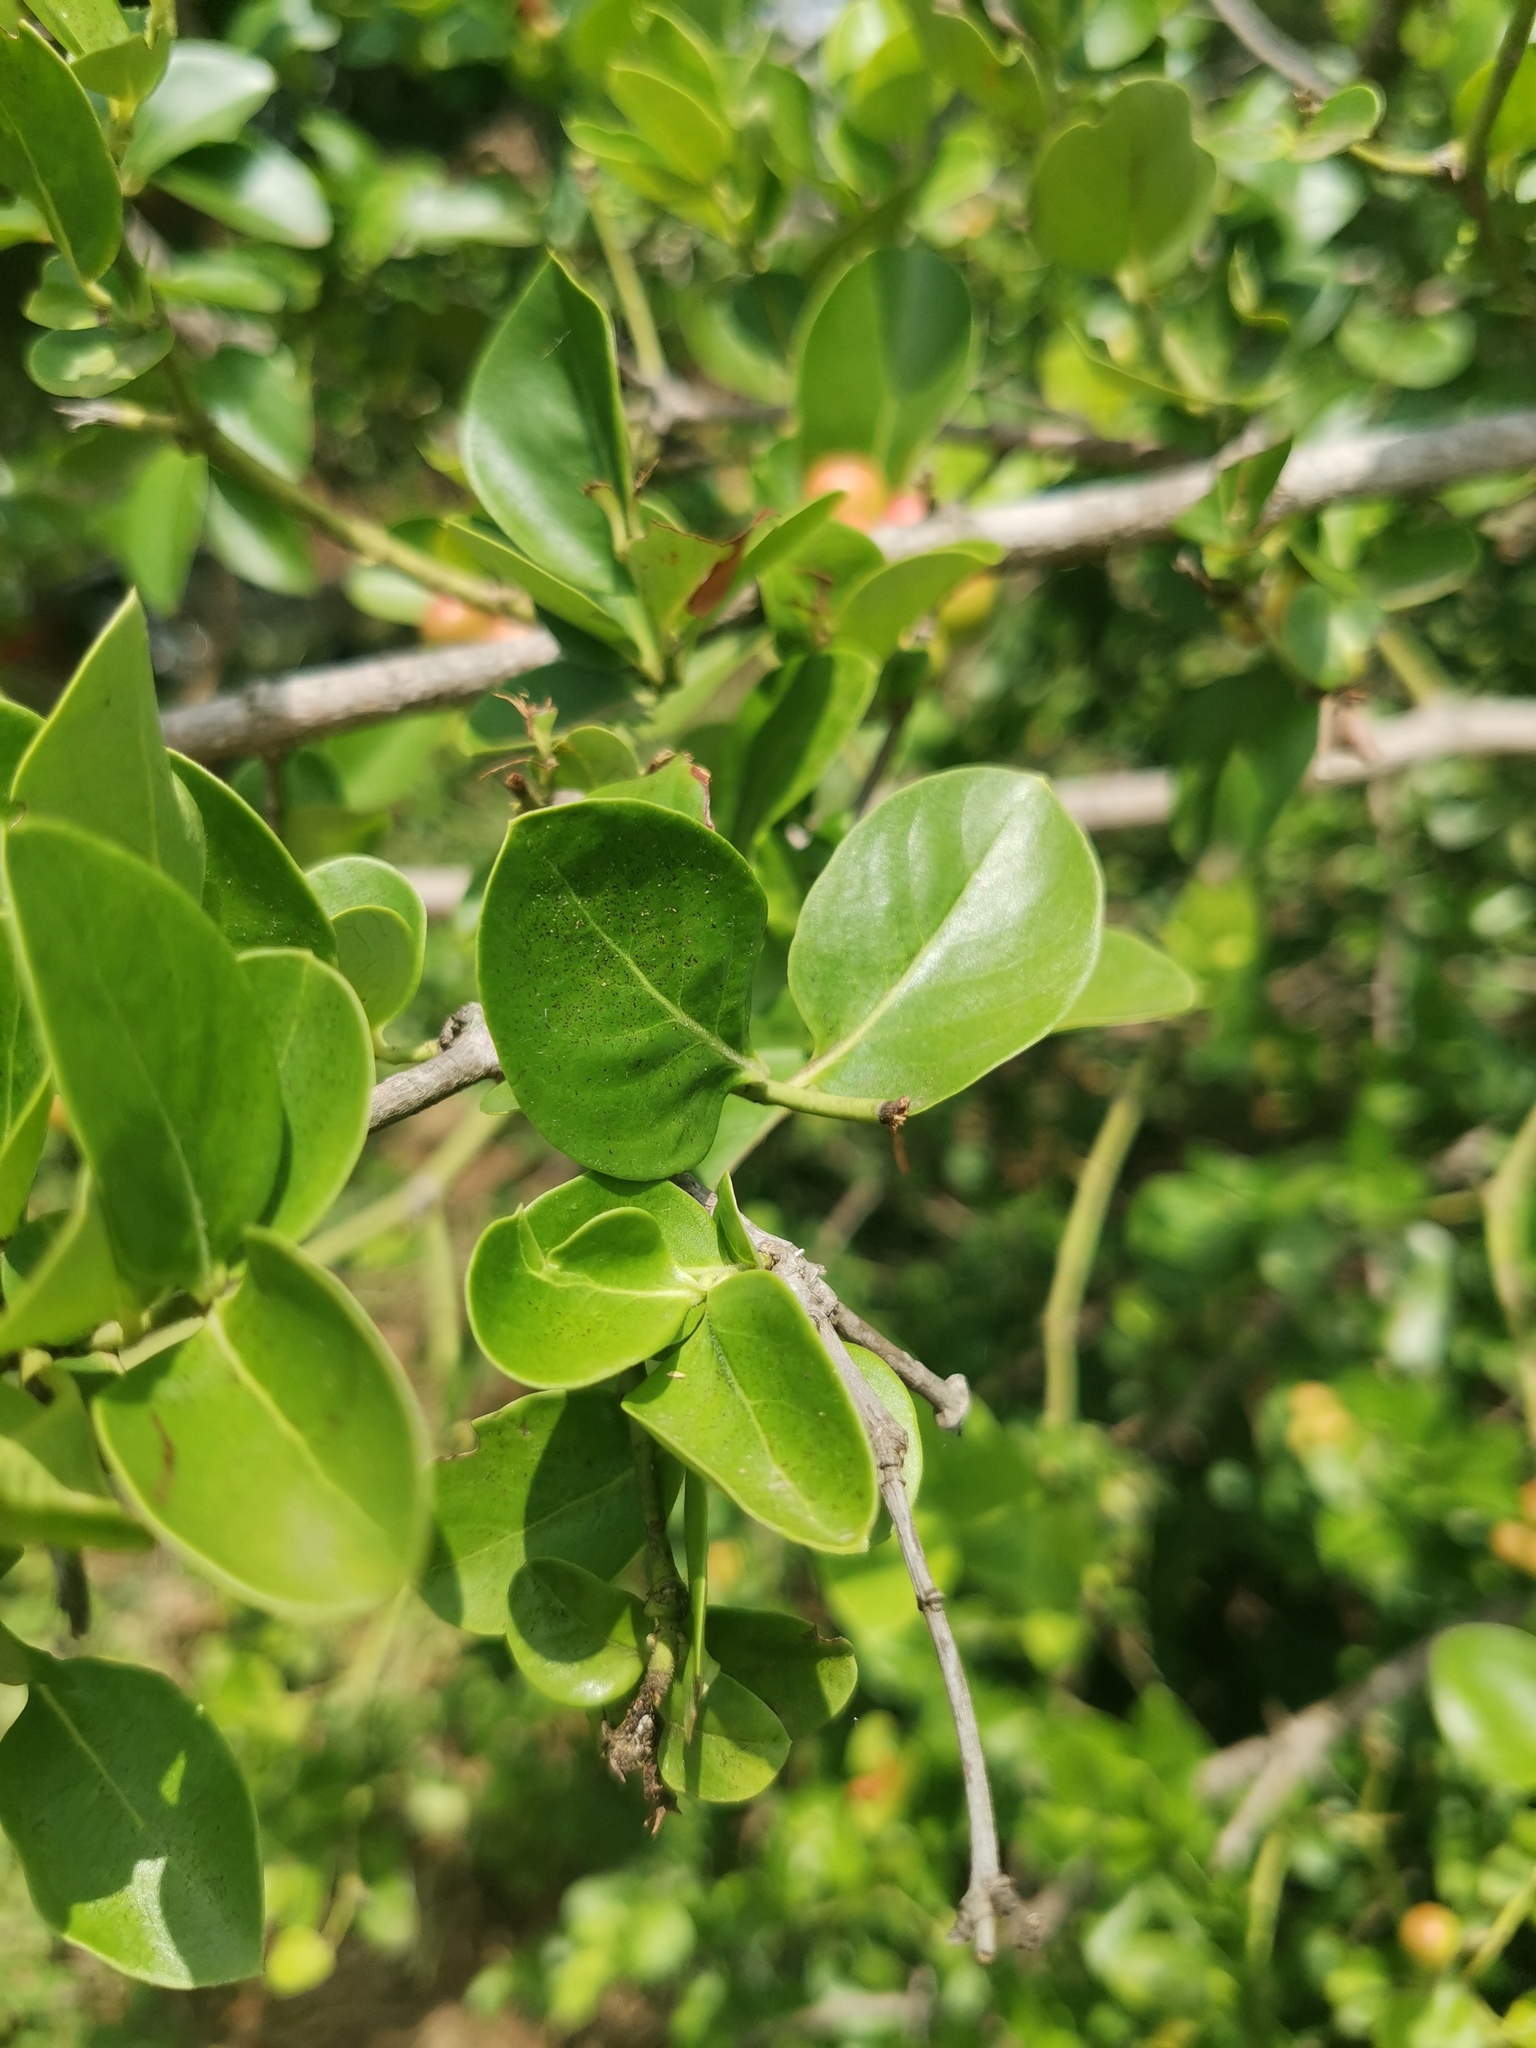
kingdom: Plantae
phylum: Tracheophyta
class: Magnoliopsida
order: Gentianales
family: Apocynaceae
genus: Carissa
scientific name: Carissa spinarum
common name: Egyptian carissa
